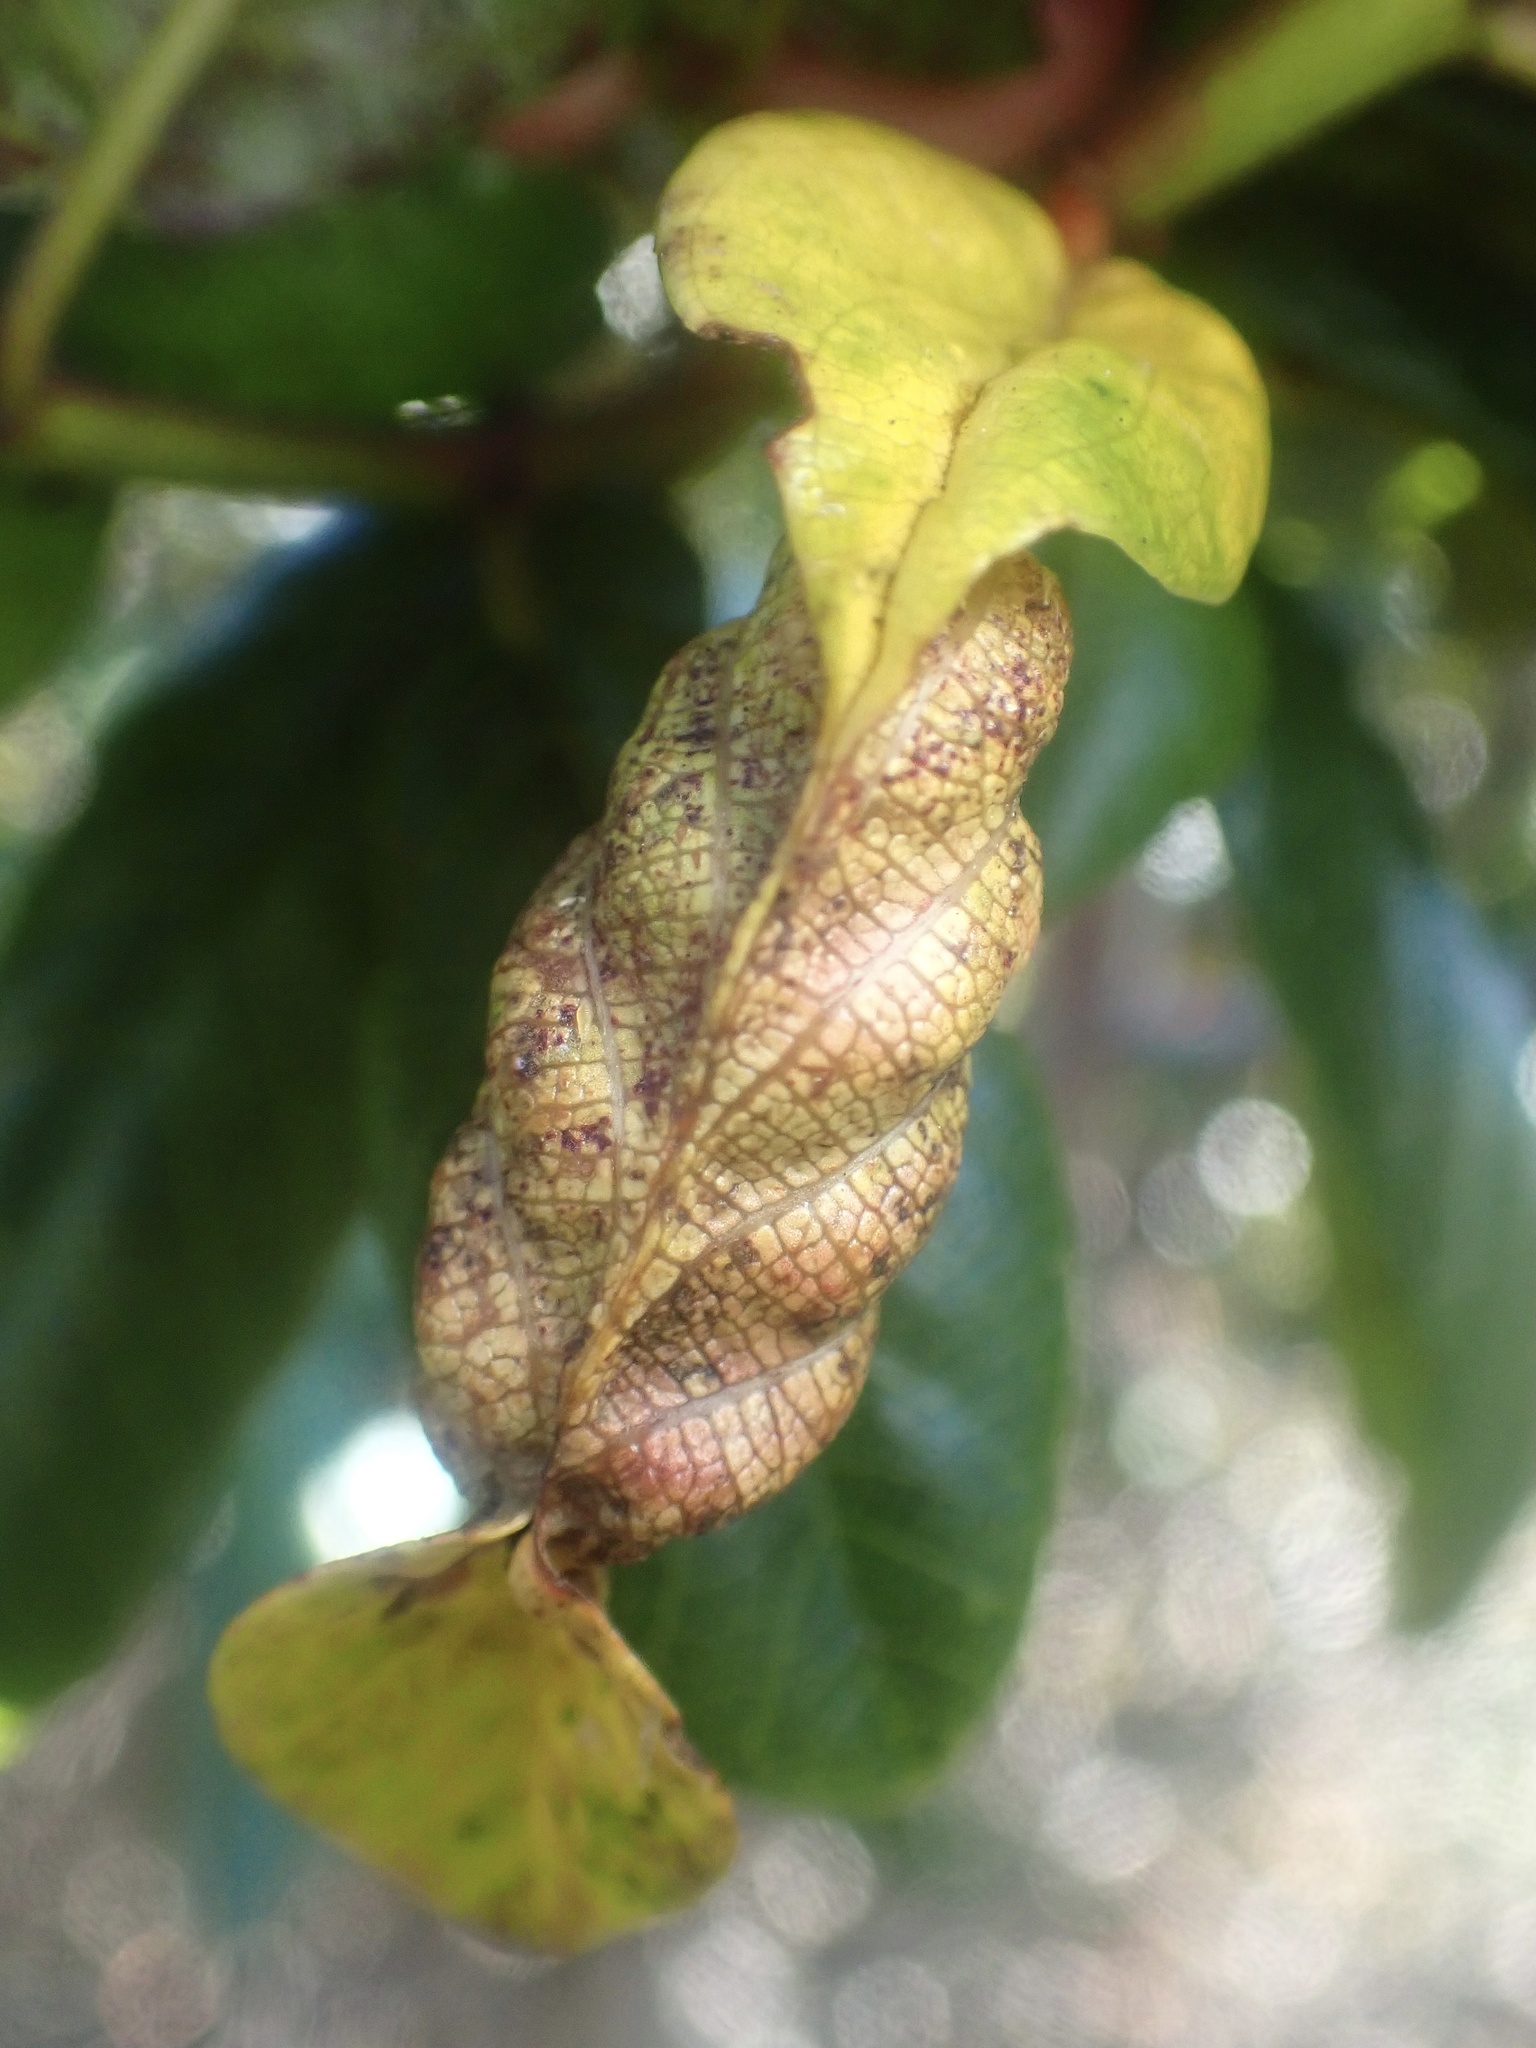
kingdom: Animalia
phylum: Arthropoda
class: Insecta
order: Lepidoptera
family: Cosmopterigidae
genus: Sorhagenia
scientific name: Sorhagenia nimbosus
